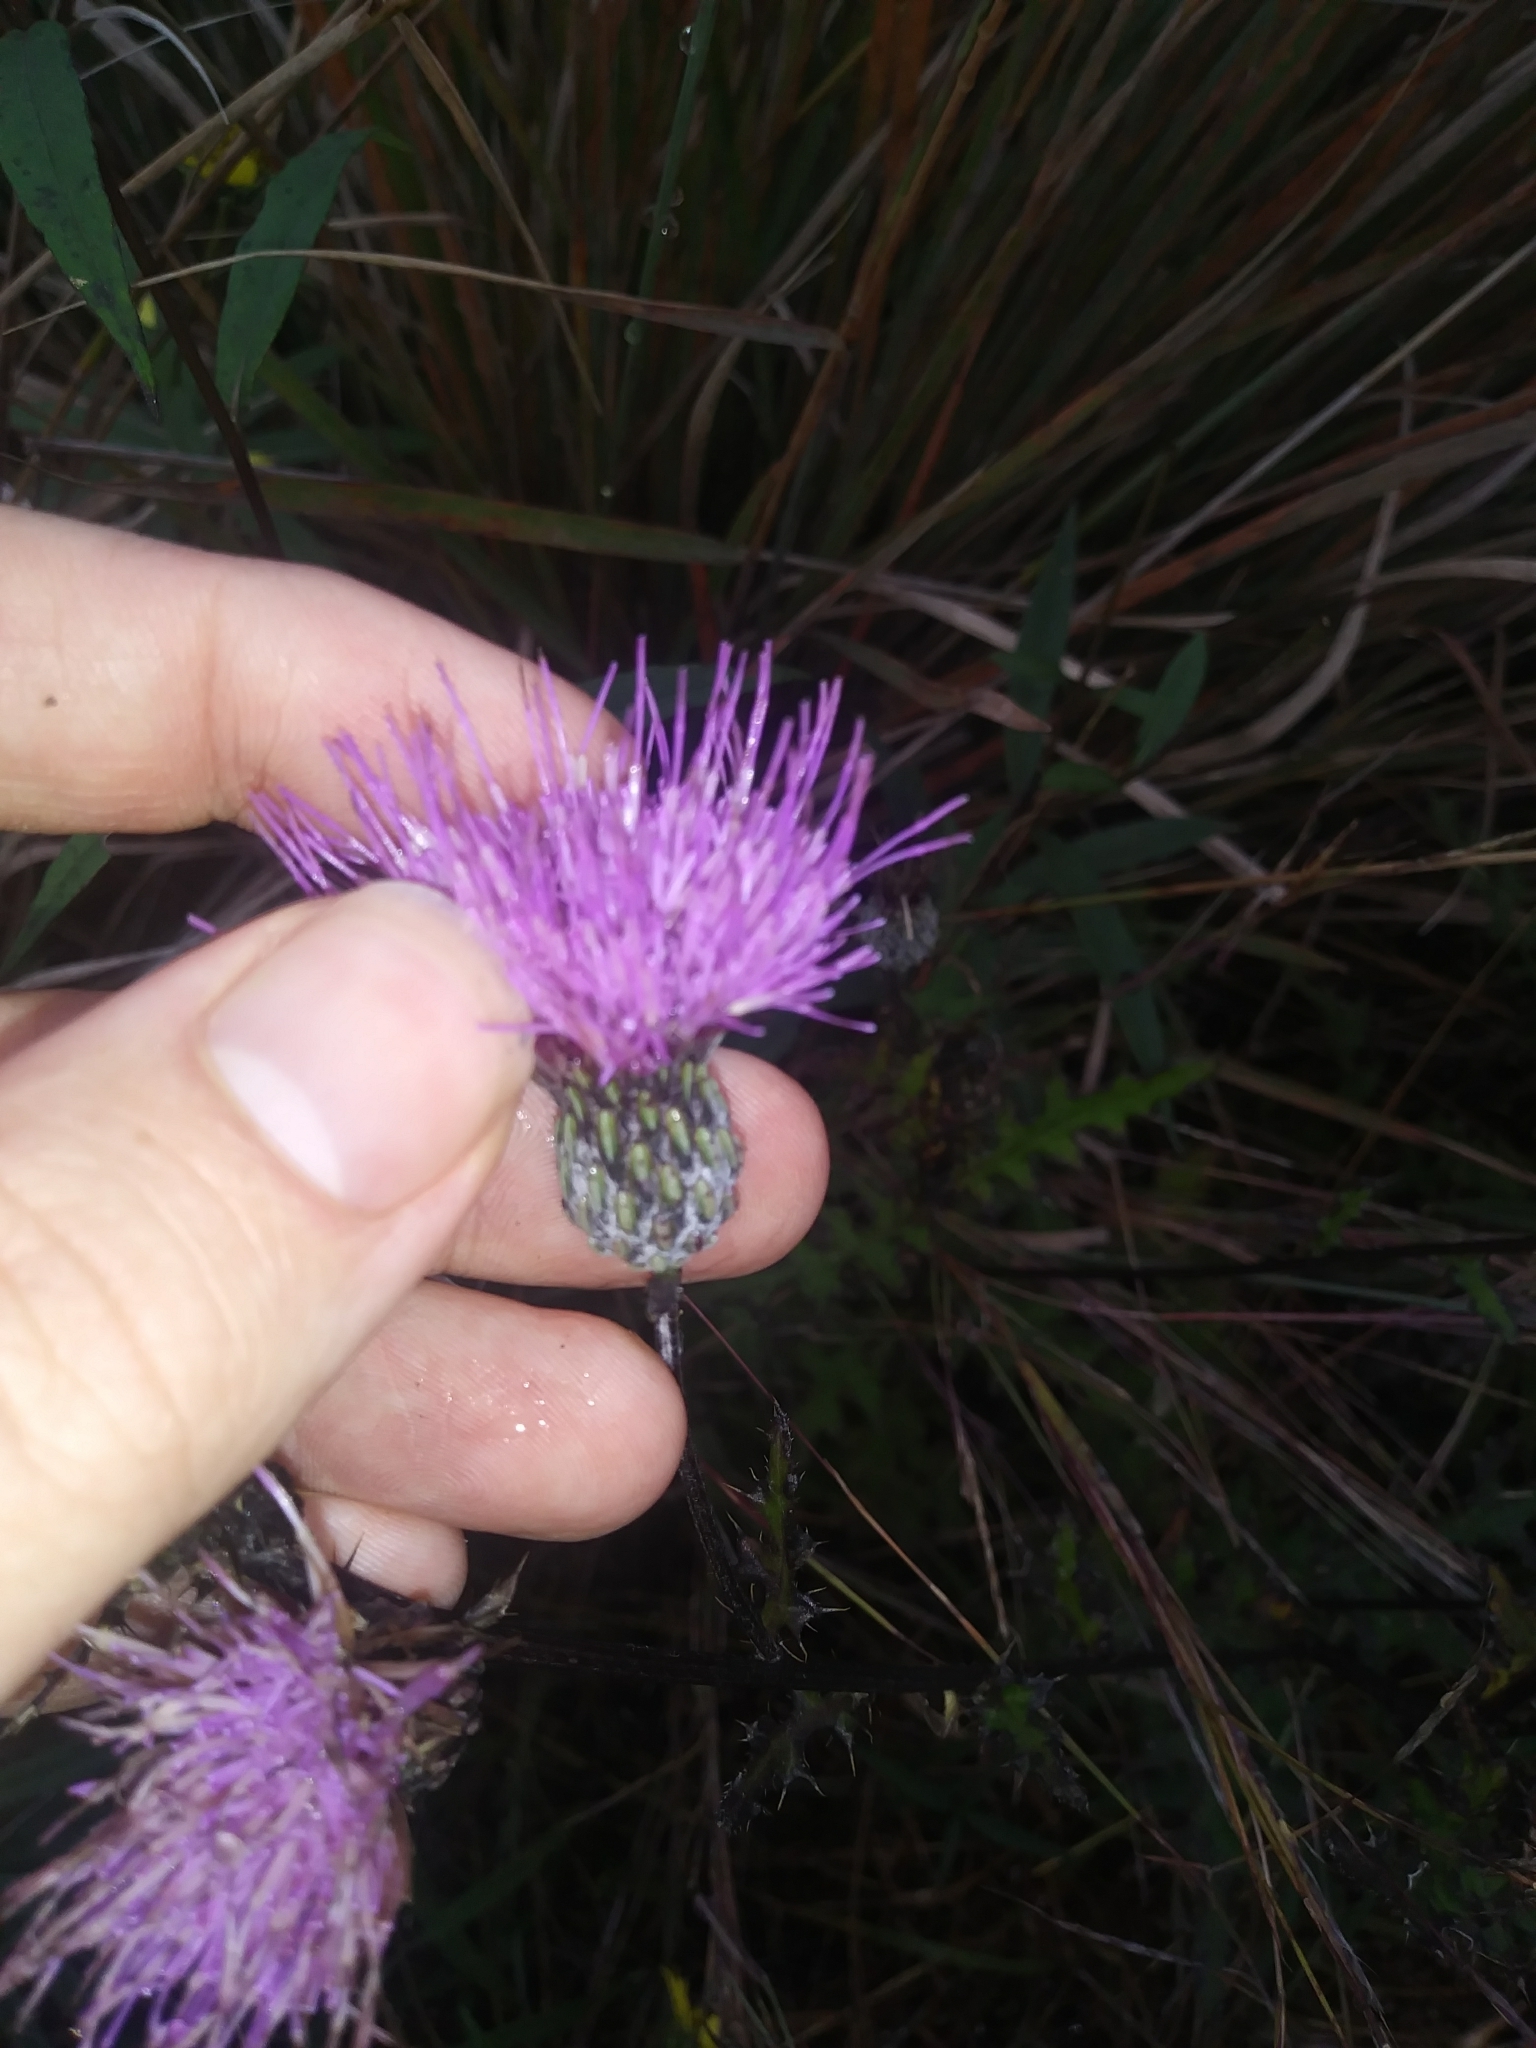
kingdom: Plantae
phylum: Tracheophyta
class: Magnoliopsida
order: Asterales
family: Asteraceae
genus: Cirsium
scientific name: Cirsium muticum
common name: Dunce-nettle
